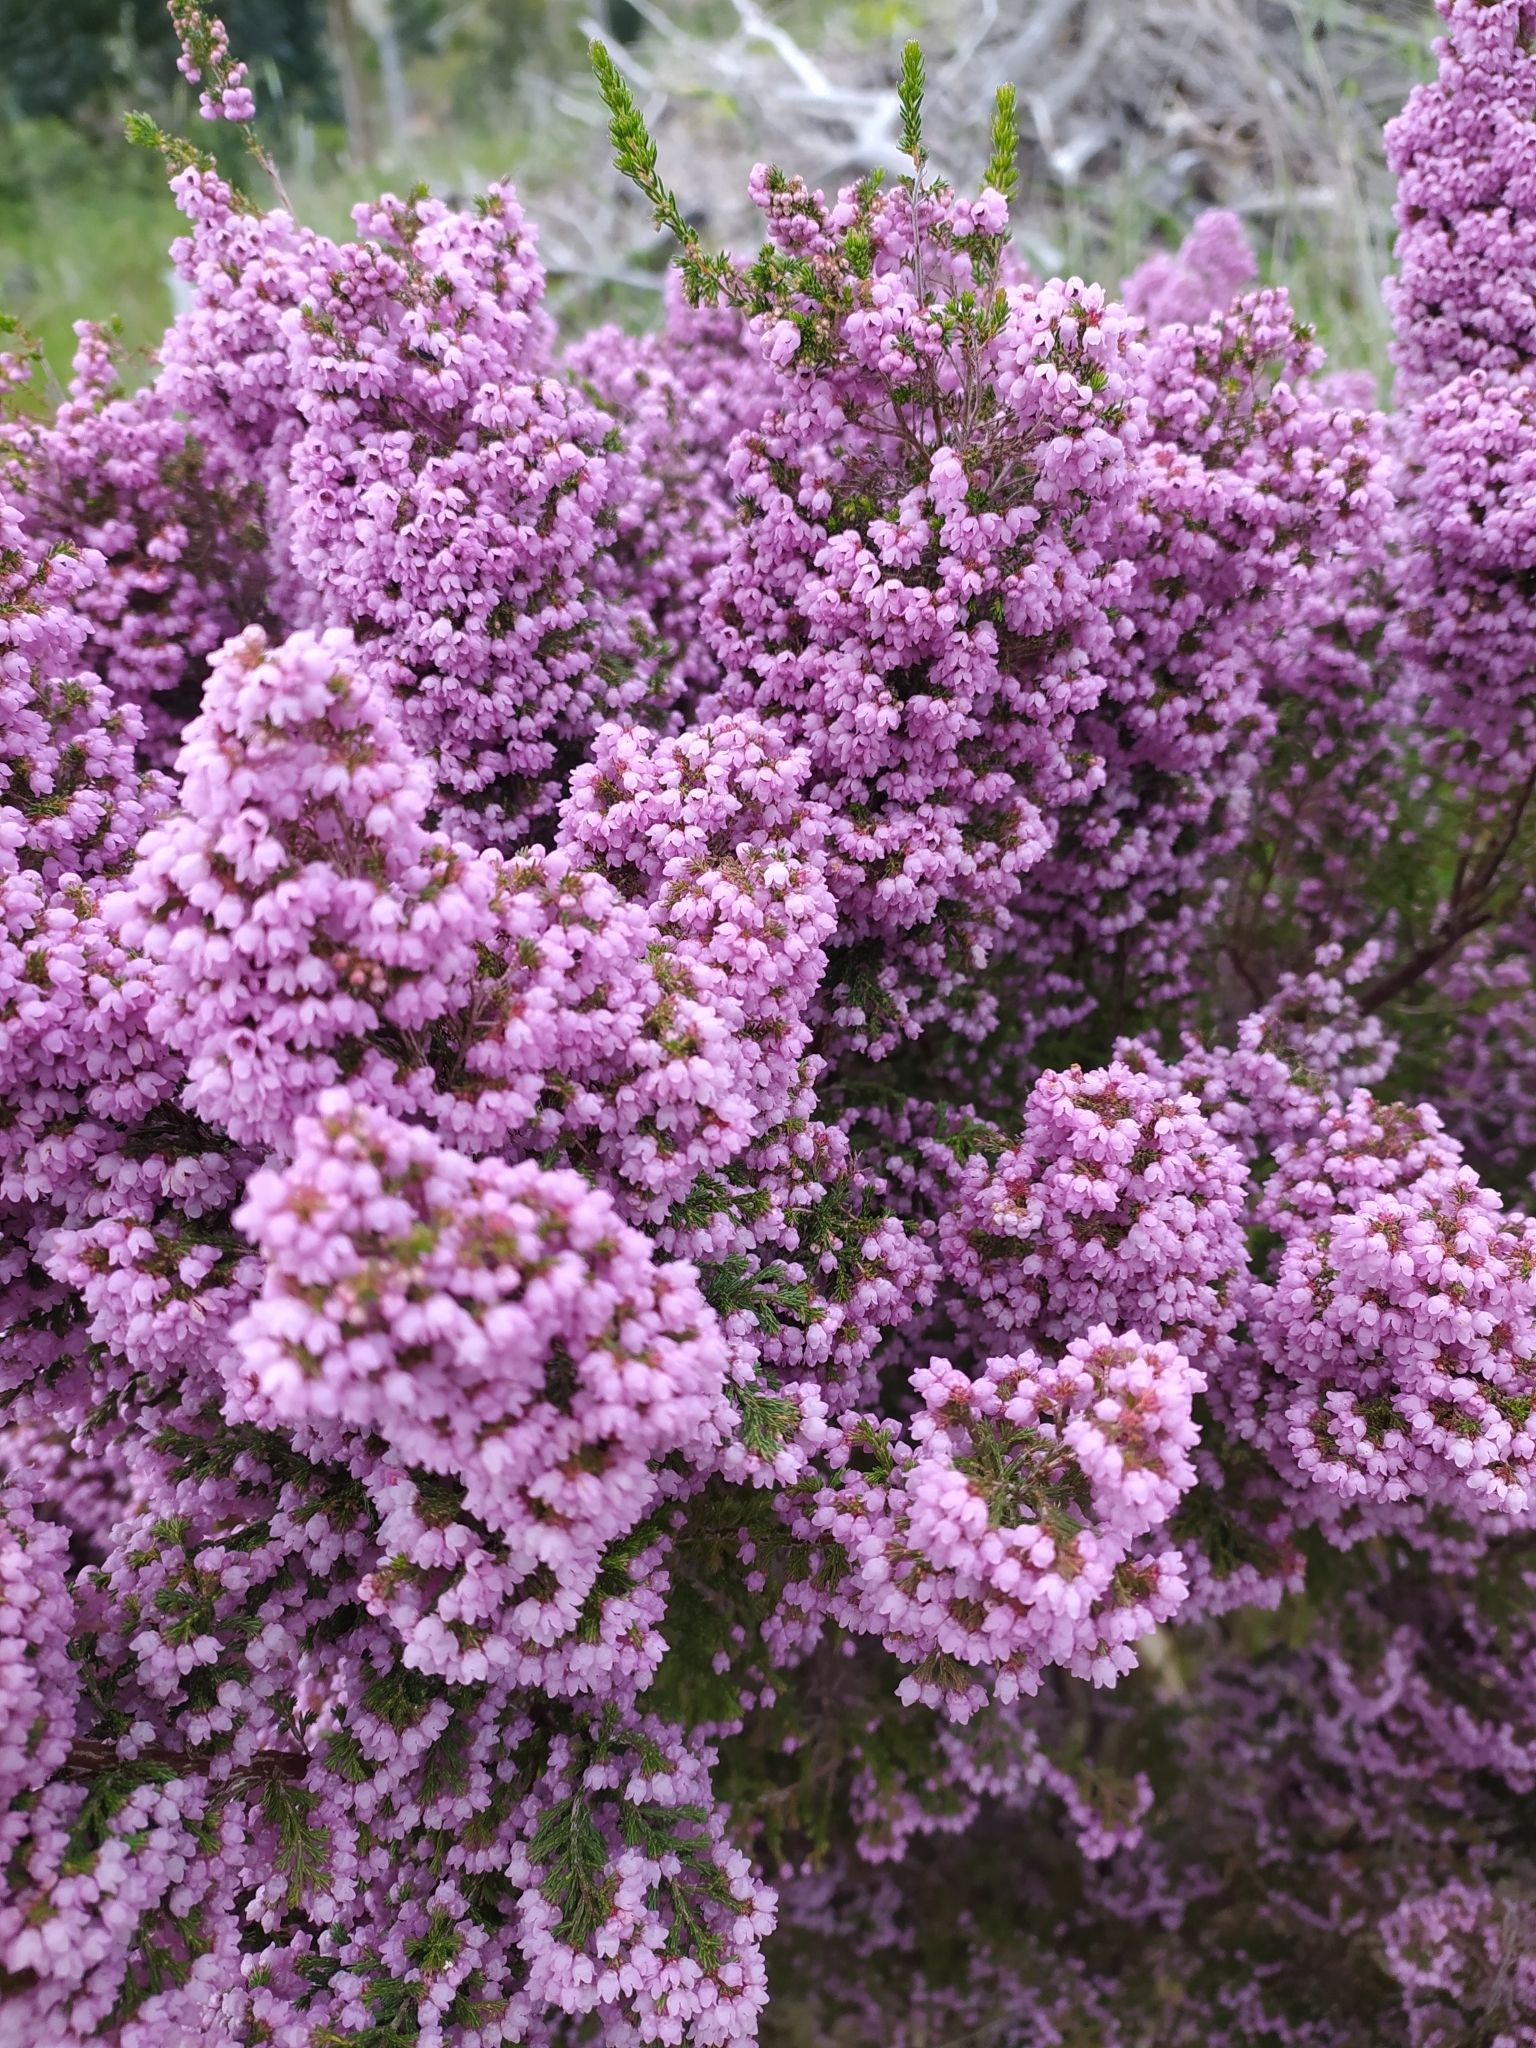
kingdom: Plantae
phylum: Tracheophyta
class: Magnoliopsida
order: Ericales
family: Ericaceae
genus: Erica
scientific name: Erica mauritanica
